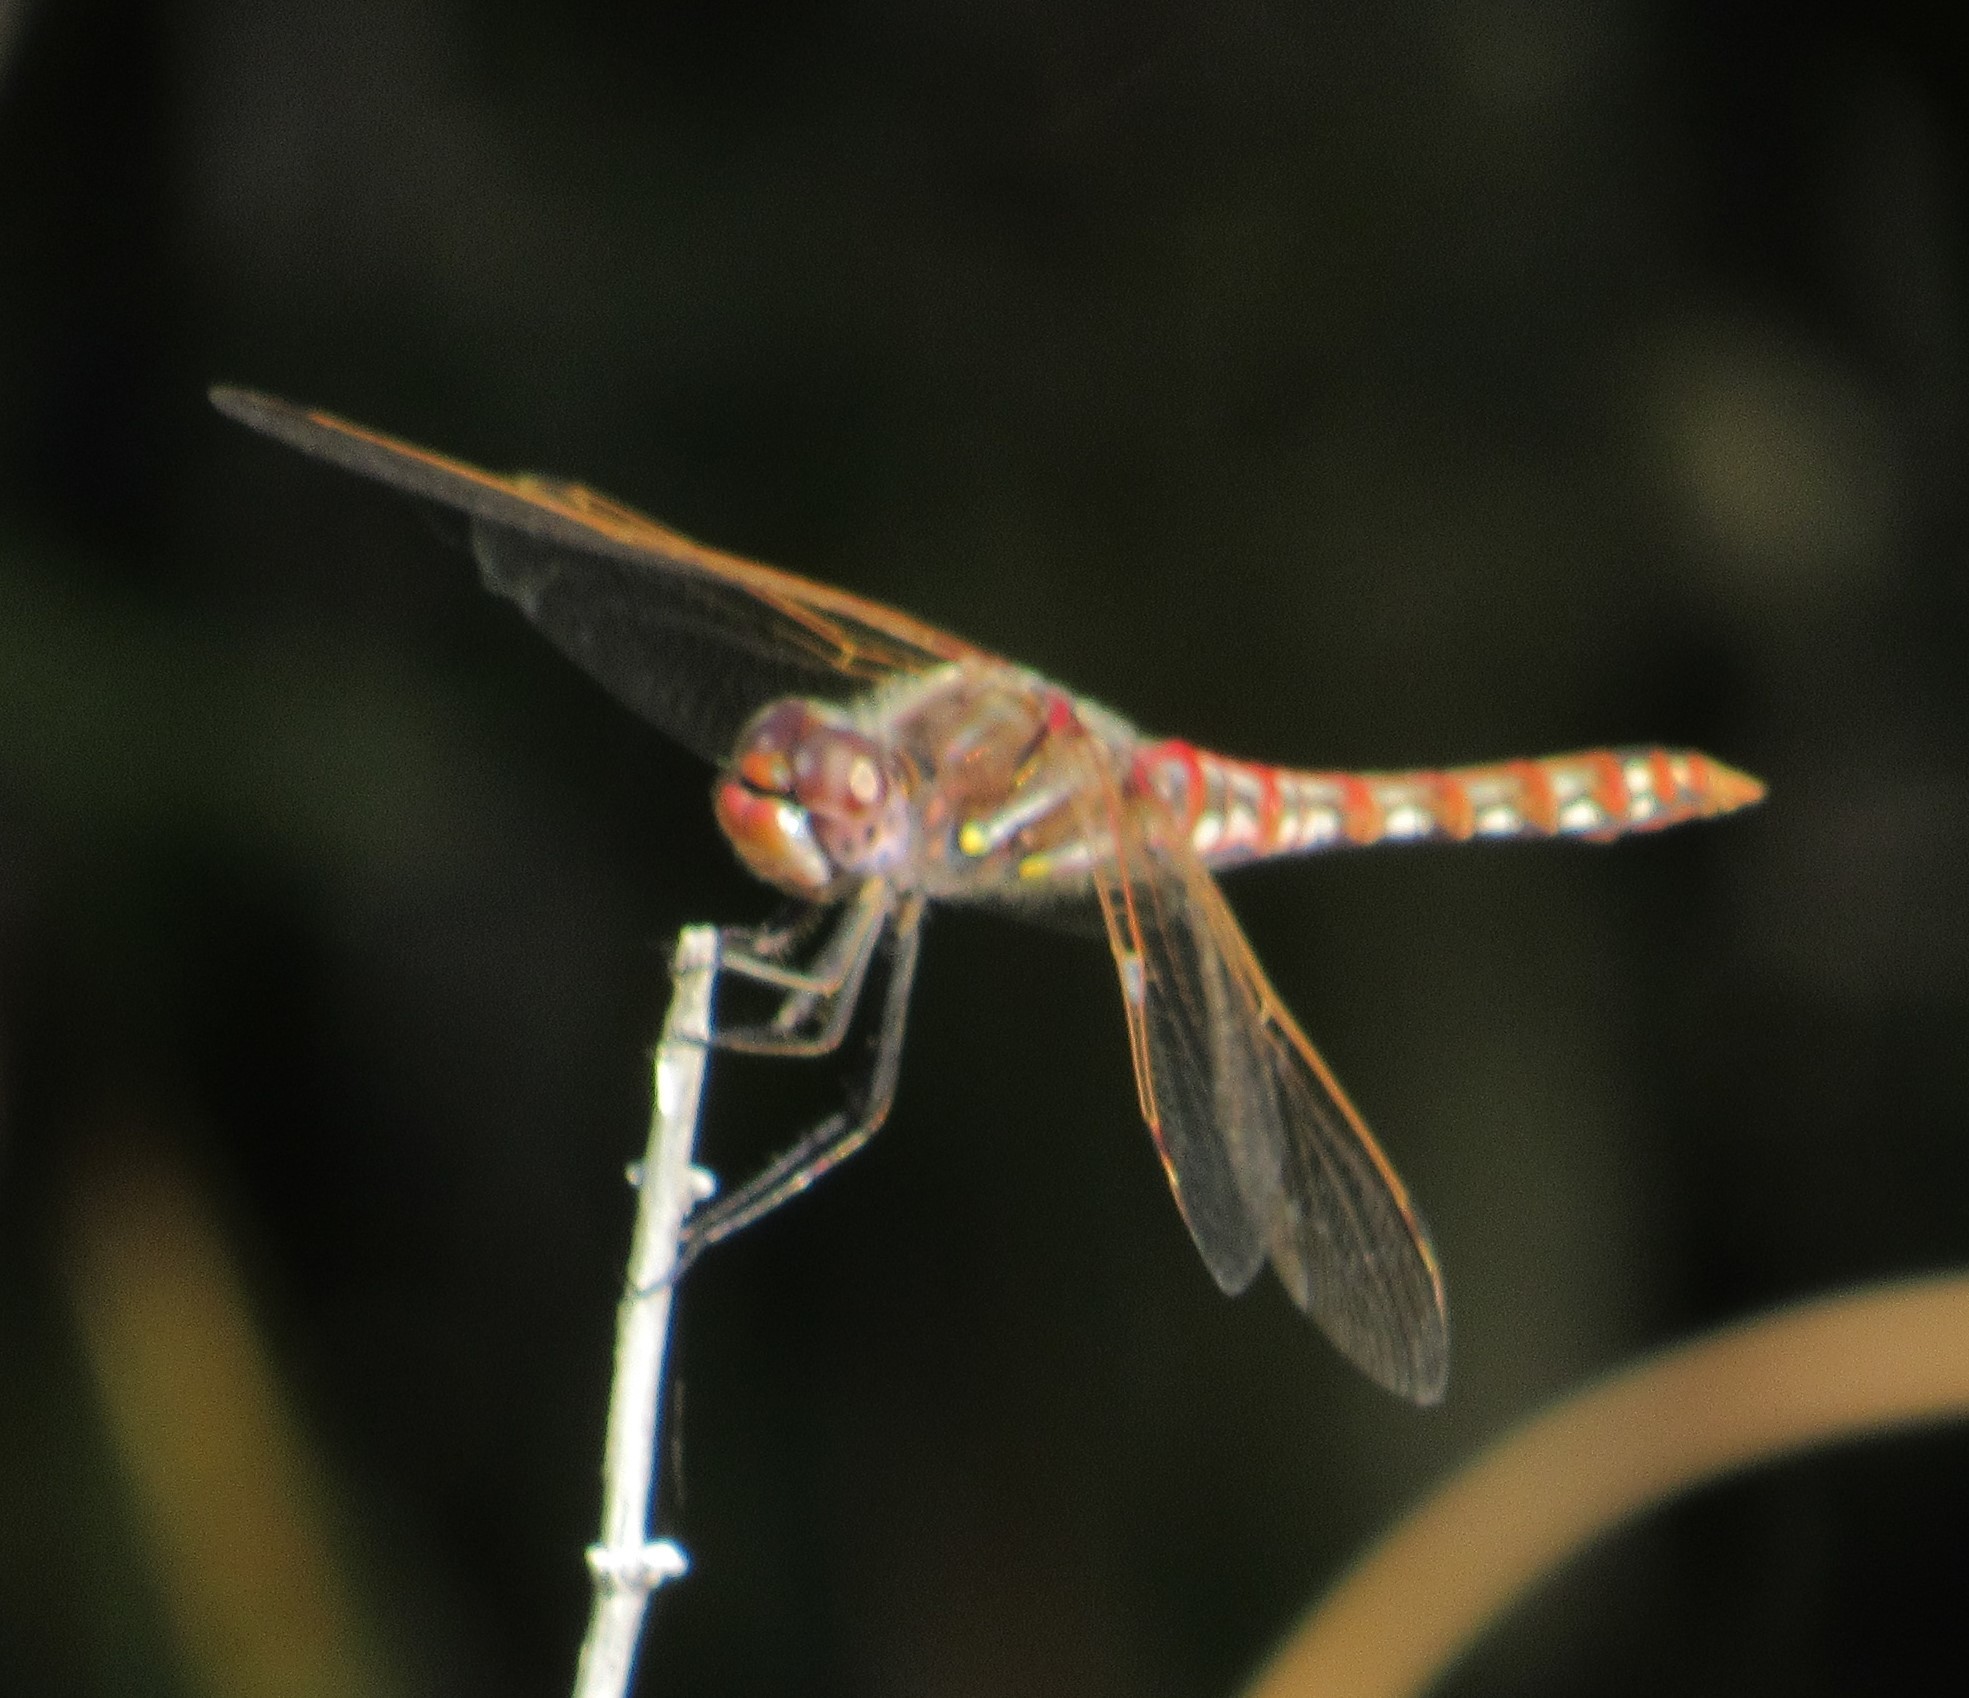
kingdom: Animalia
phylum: Arthropoda
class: Insecta
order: Odonata
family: Libellulidae
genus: Sympetrum
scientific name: Sympetrum corruptum
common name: Variegated meadowhawk
